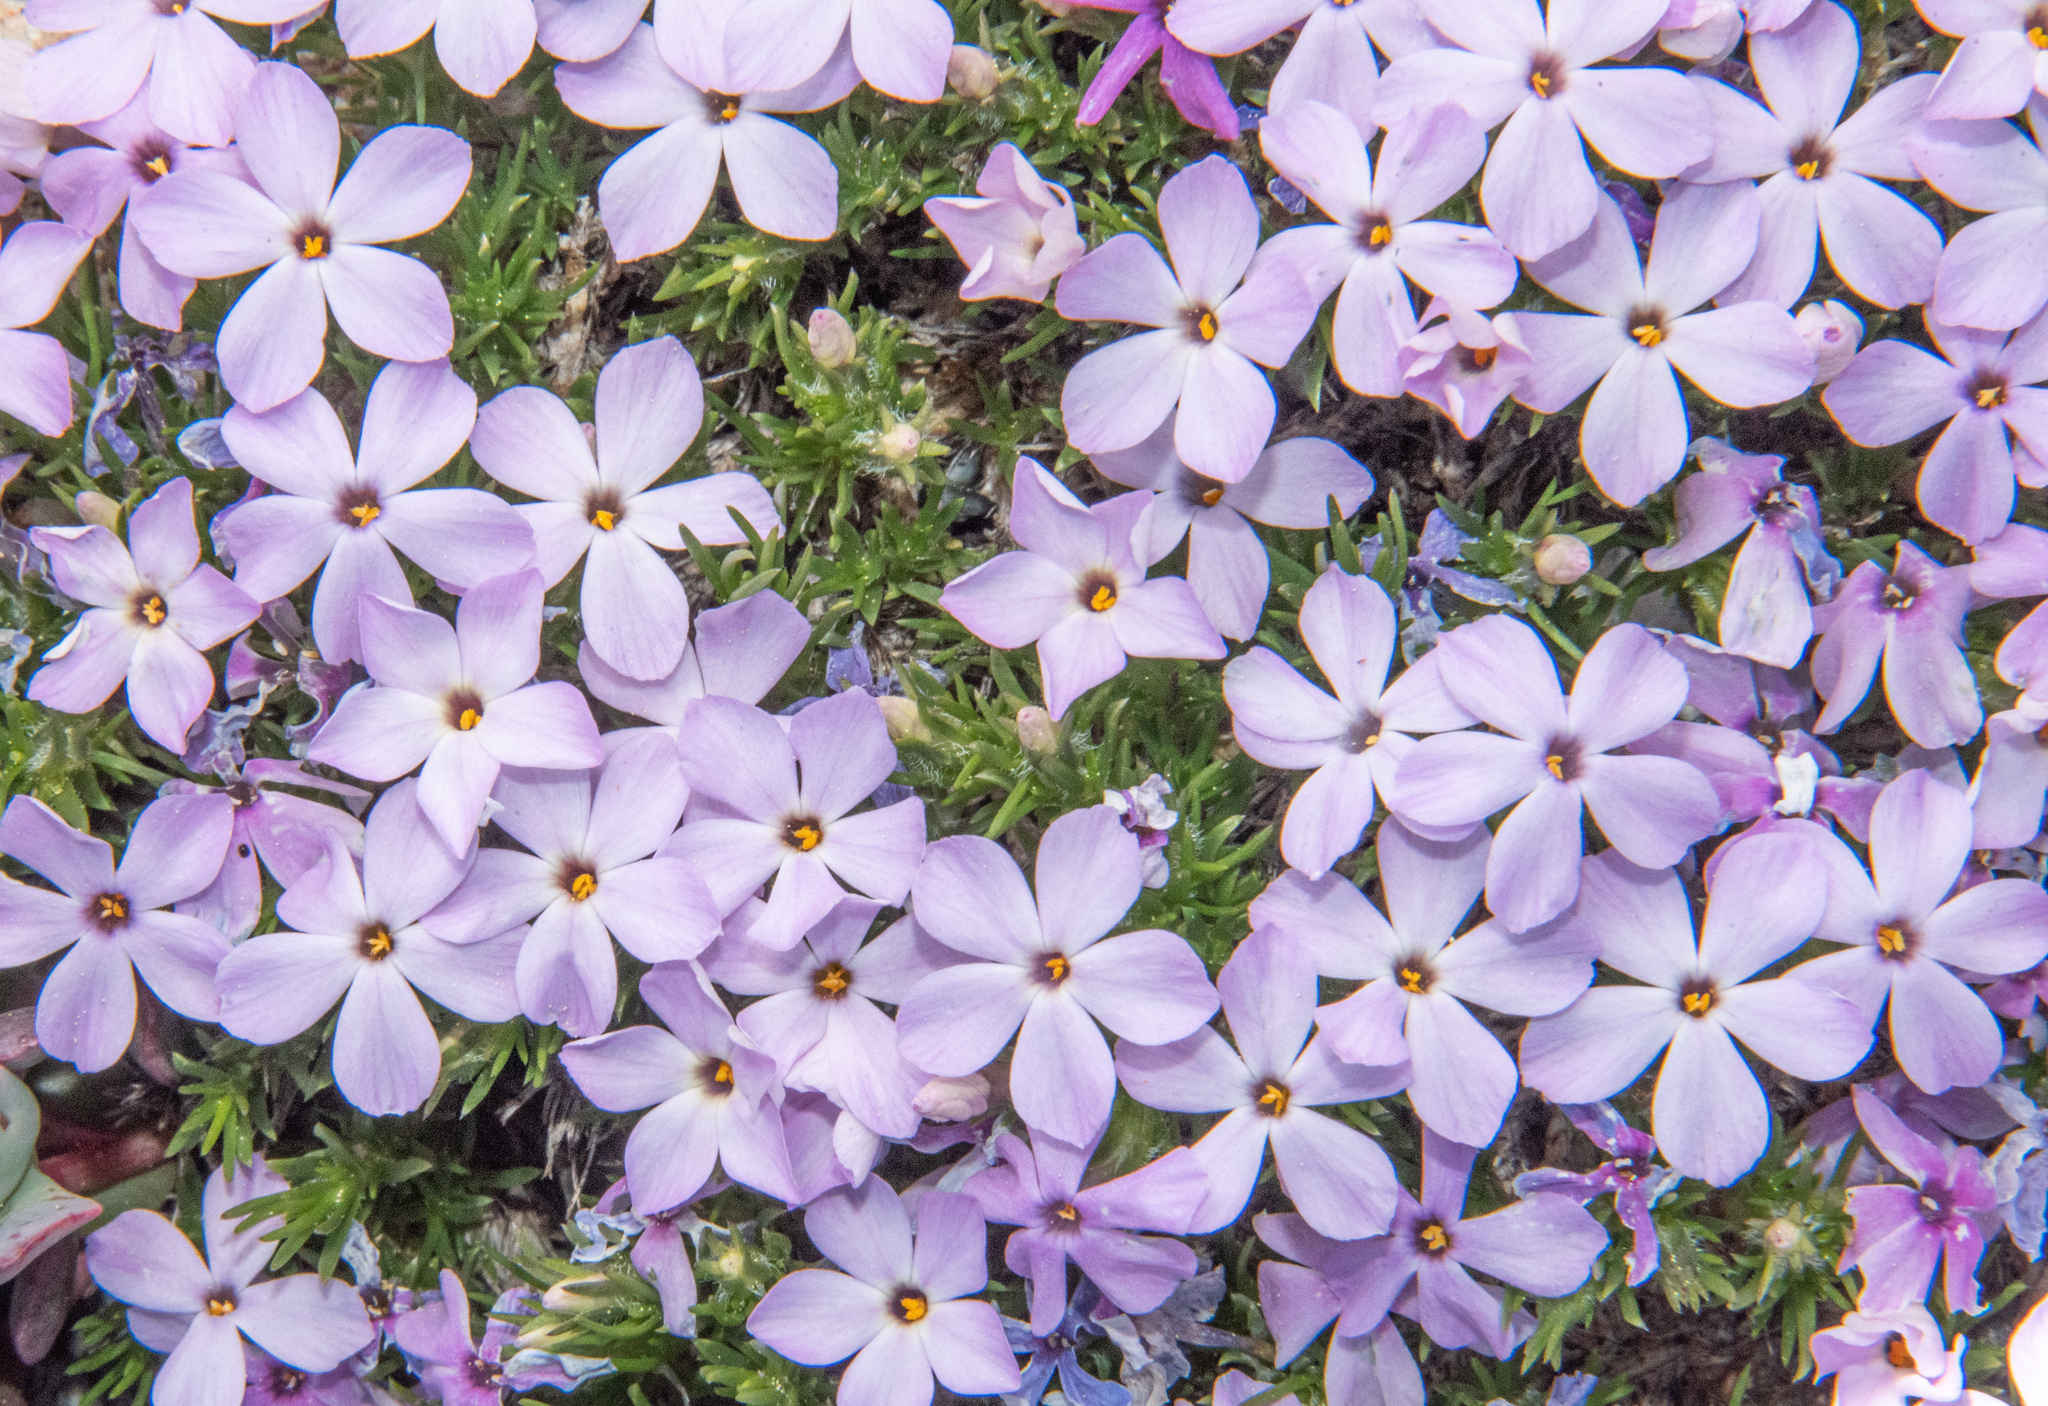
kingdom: Plantae
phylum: Tracheophyta
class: Magnoliopsida
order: Ericales
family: Polemoniaceae
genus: Phlox
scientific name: Phlox diffusa
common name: Mat phlox
